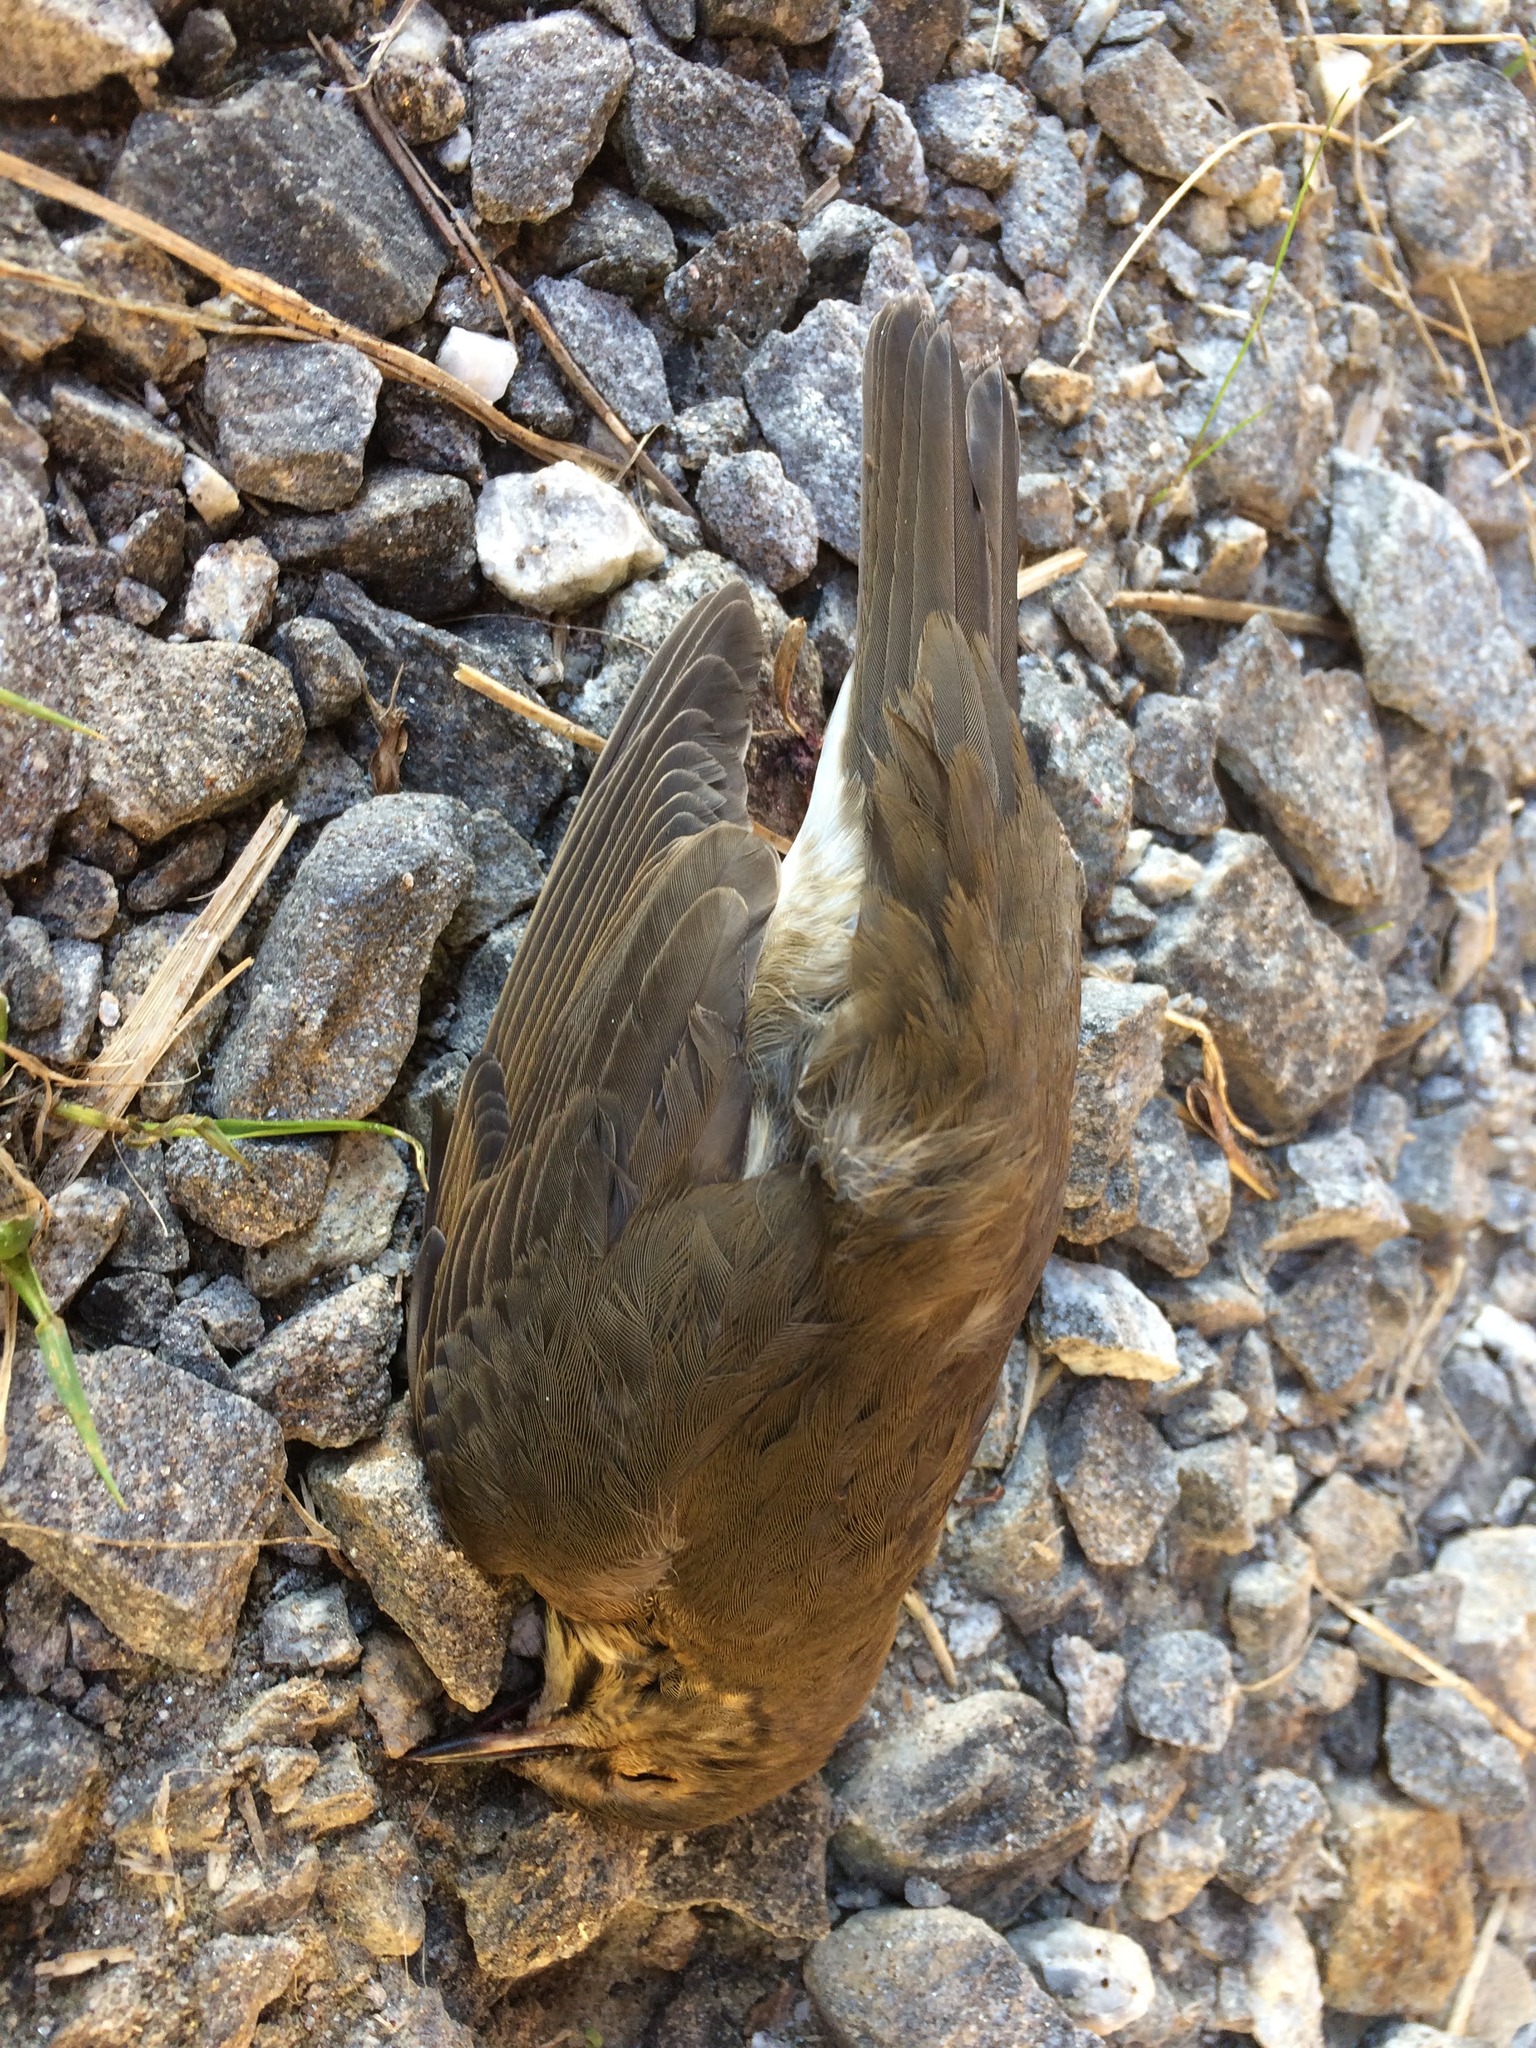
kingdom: Animalia
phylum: Chordata
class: Aves
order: Passeriformes
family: Turdidae
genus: Catharus
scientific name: Catharus ustulatus
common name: Swainson's thrush
